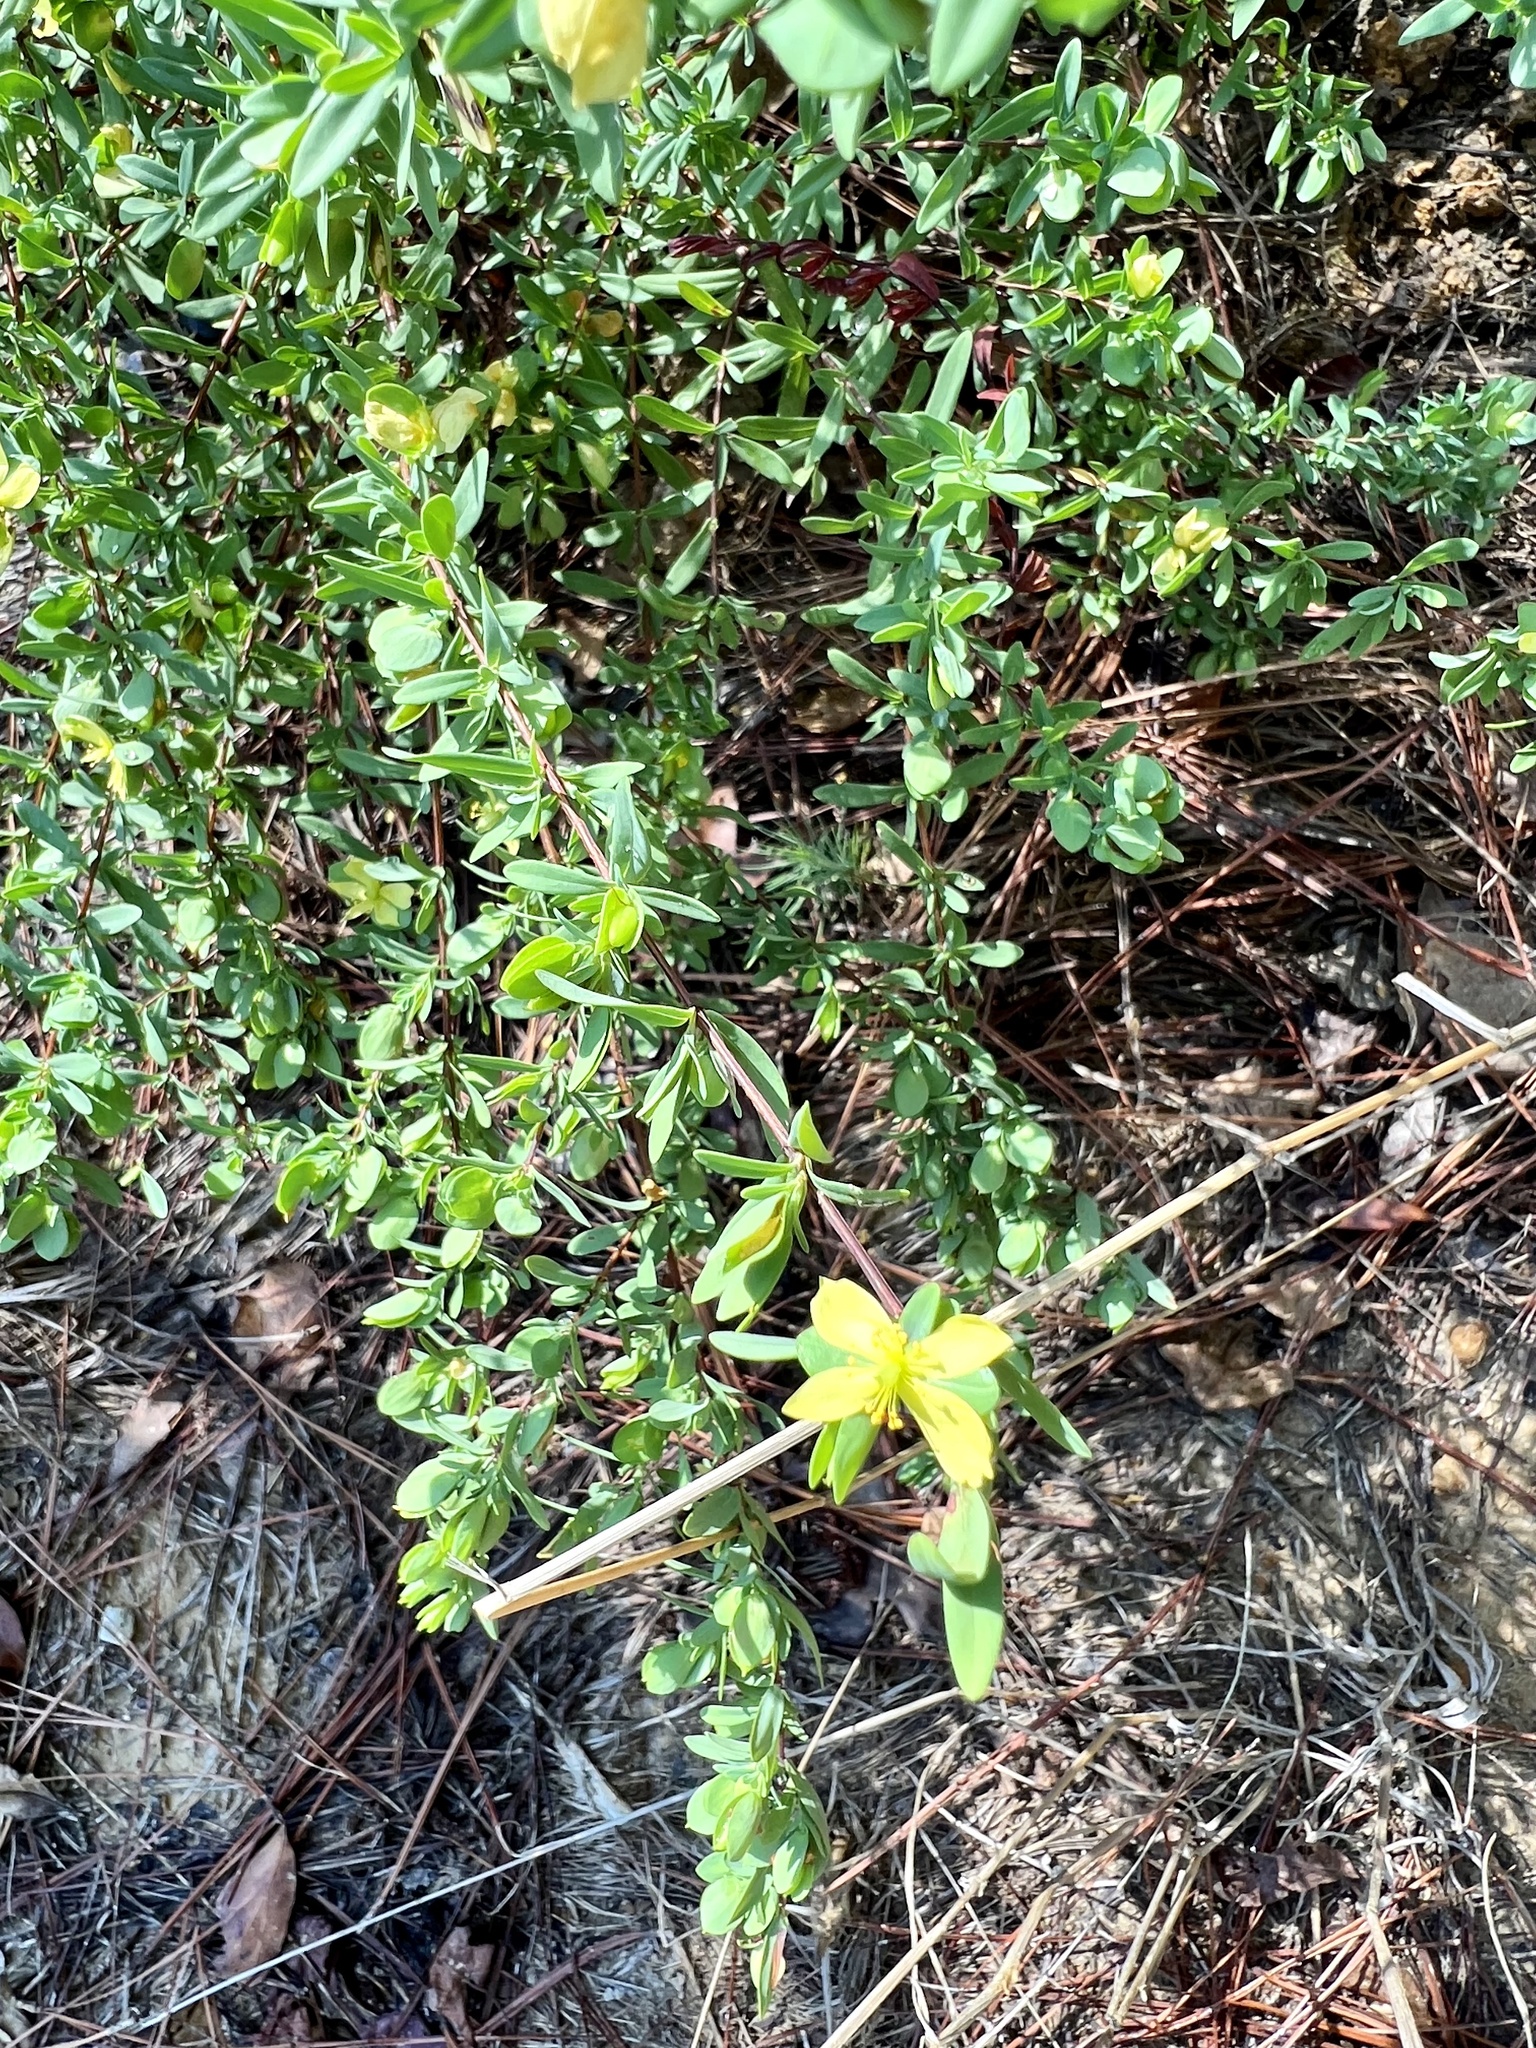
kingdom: Plantae
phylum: Tracheophyta
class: Magnoliopsida
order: Malpighiales
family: Hypericaceae
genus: Hypericum
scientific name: Hypericum hypericoides
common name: St. andrew's cross
